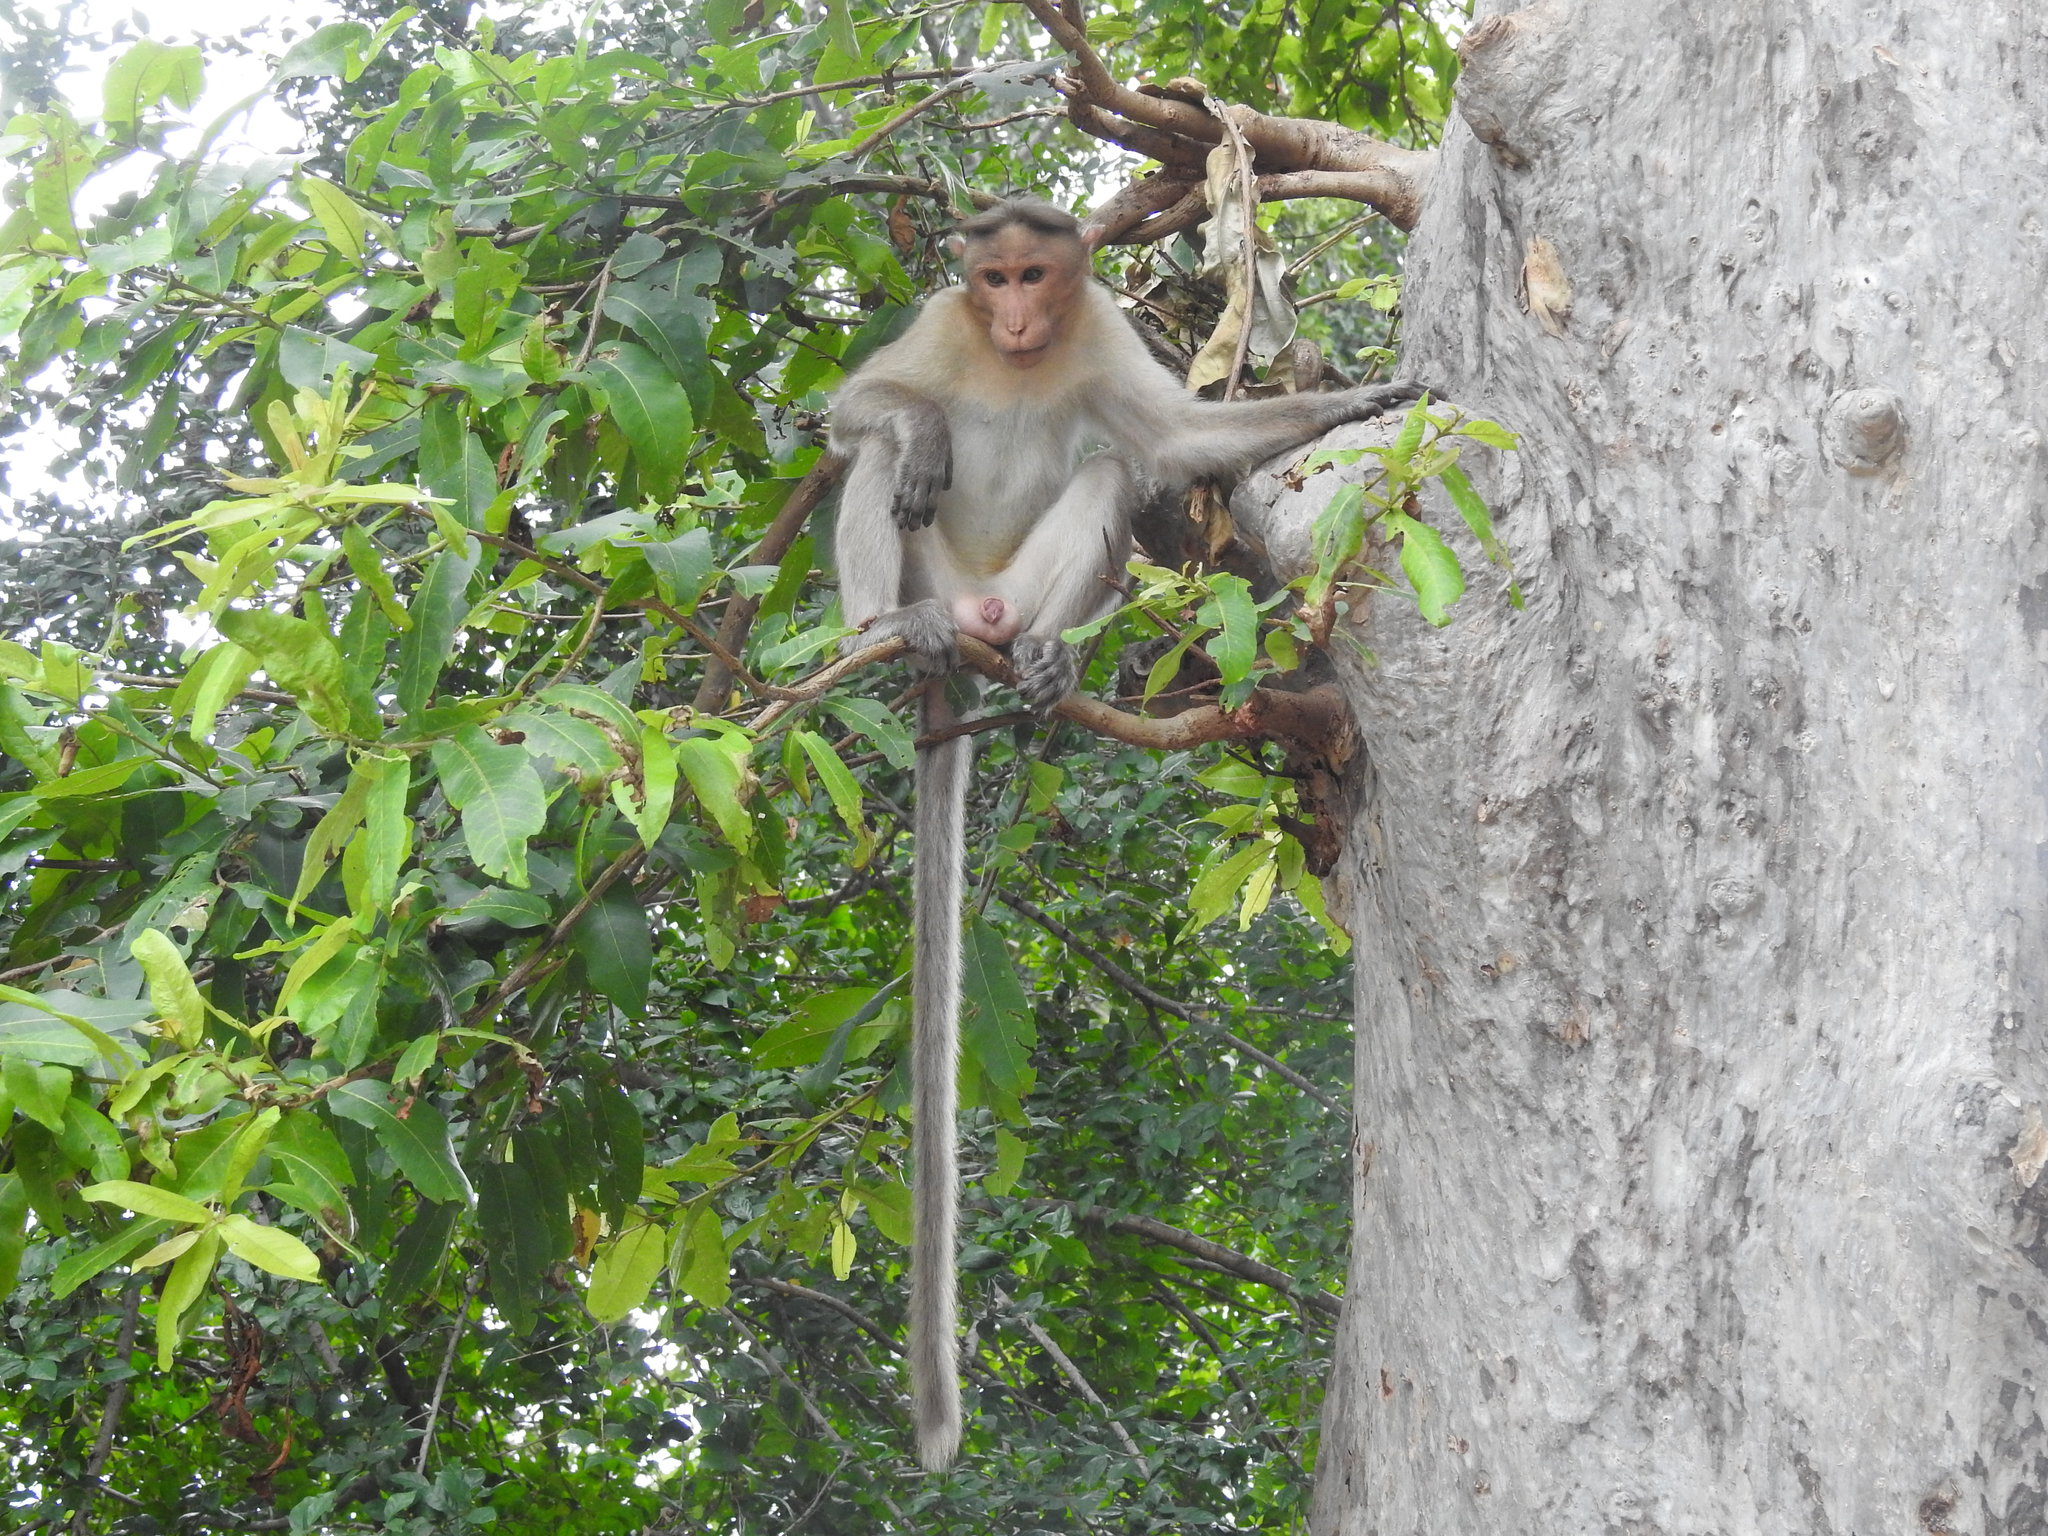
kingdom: Animalia
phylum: Chordata
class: Mammalia
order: Primates
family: Cercopithecidae
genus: Macaca
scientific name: Macaca radiata
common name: Bonnet macaque
